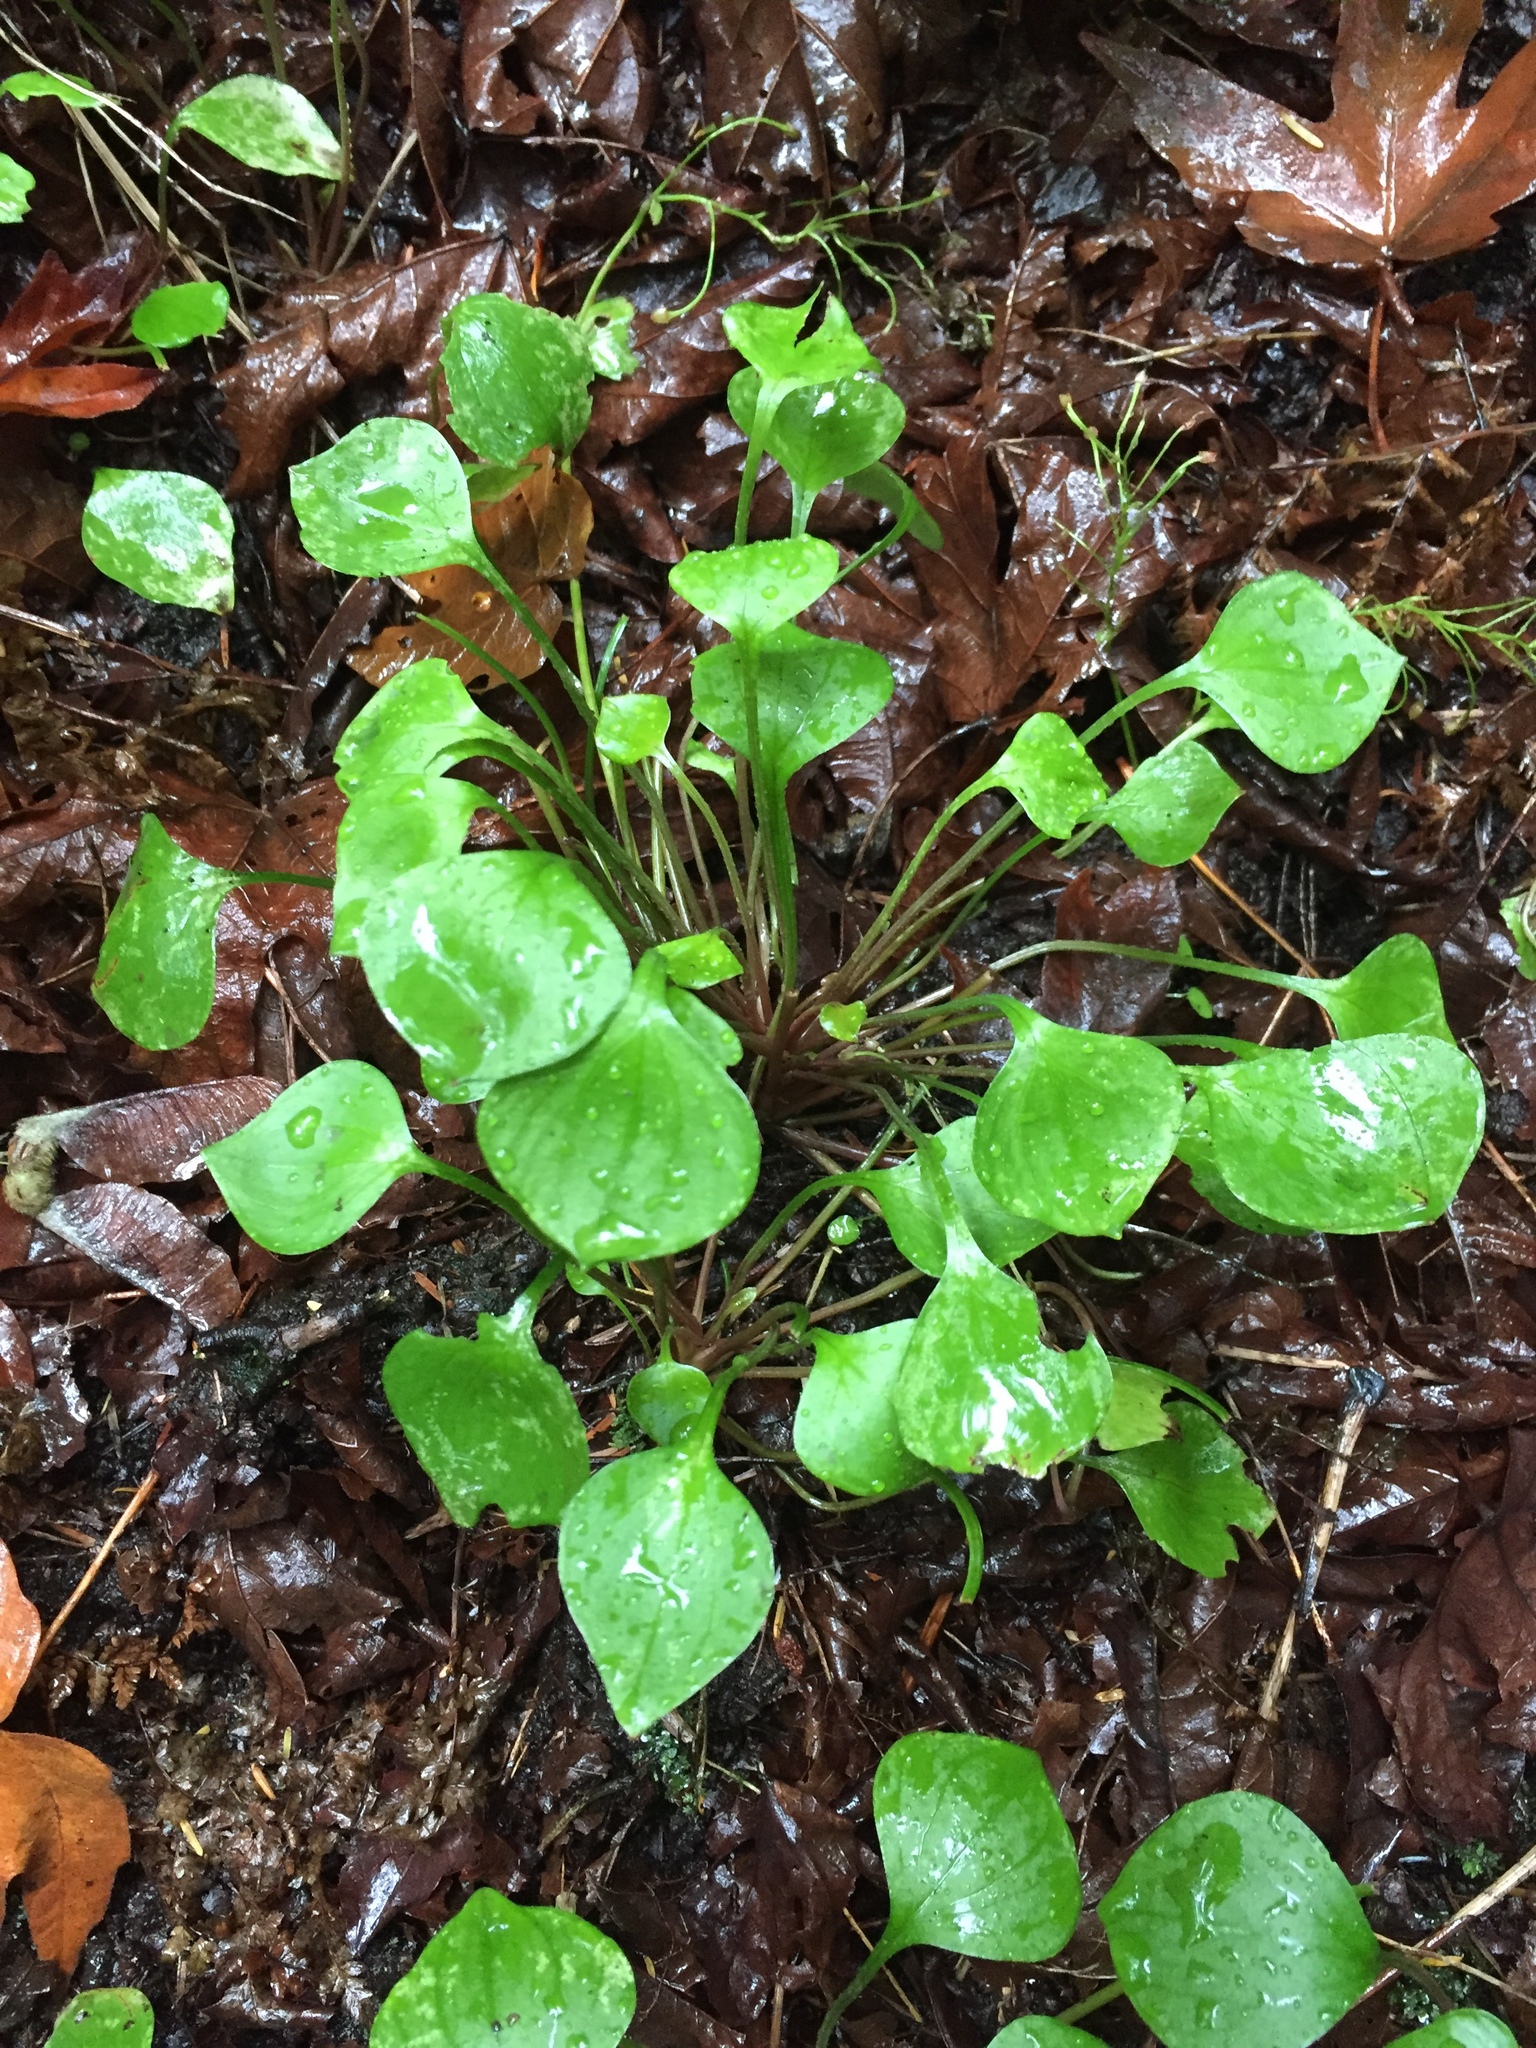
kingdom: Plantae
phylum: Tracheophyta
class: Magnoliopsida
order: Caryophyllales
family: Montiaceae
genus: Claytonia
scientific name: Claytonia sibirica
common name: Pink purslane
